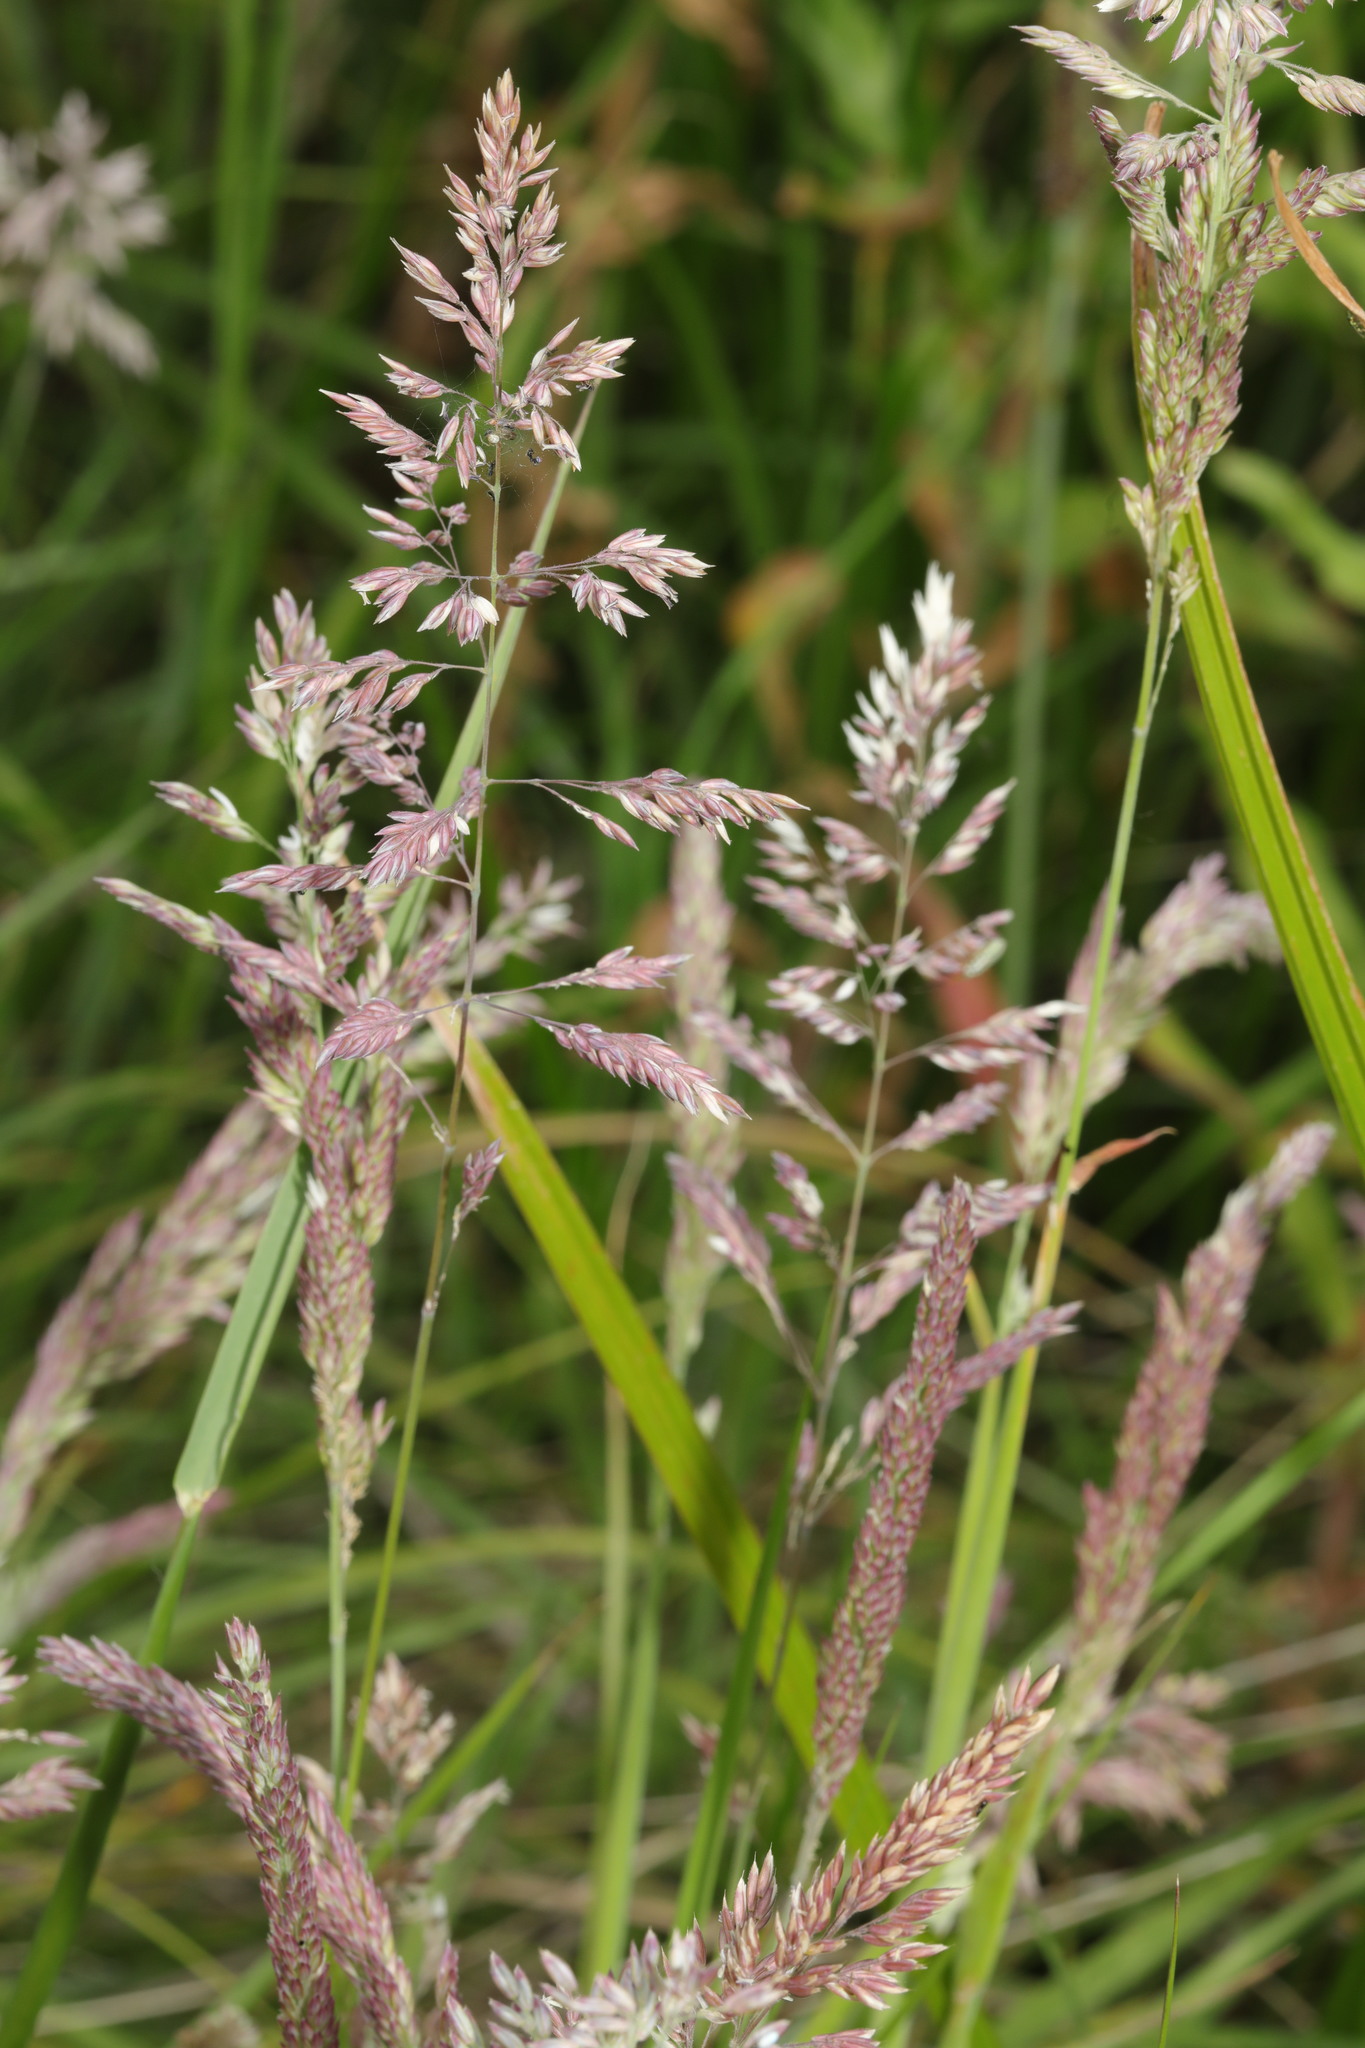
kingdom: Plantae
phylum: Tracheophyta
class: Liliopsida
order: Poales
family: Poaceae
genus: Holcus
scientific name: Holcus lanatus
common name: Yorkshire-fog
